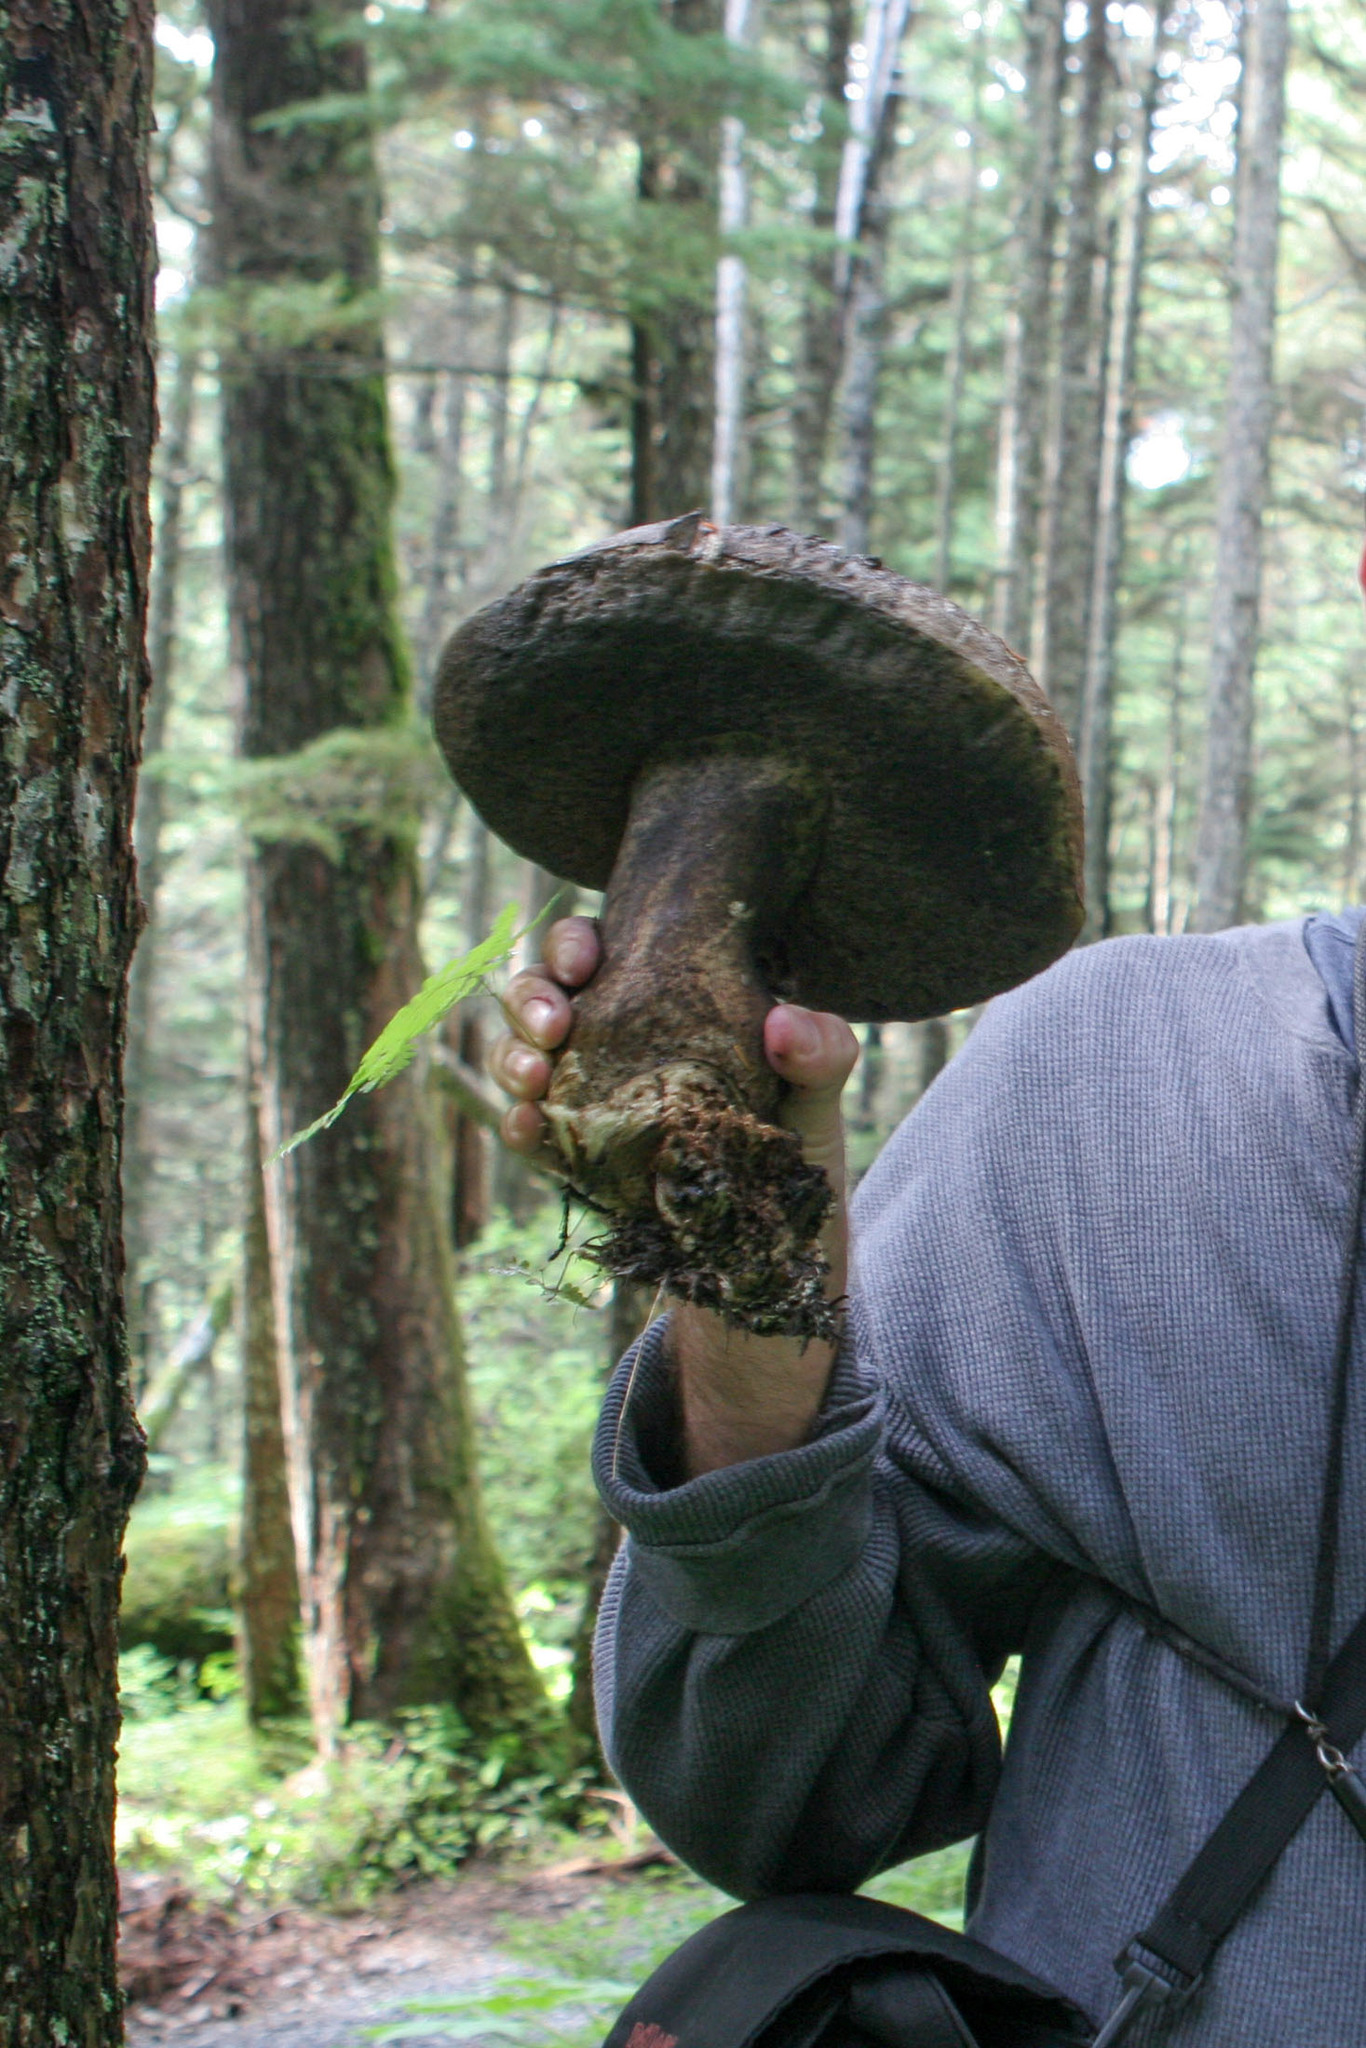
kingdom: Fungi
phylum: Basidiomycota
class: Agaricomycetes
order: Boletales
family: Boletaceae
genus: Caloboletus
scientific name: Caloboletus conifericola
